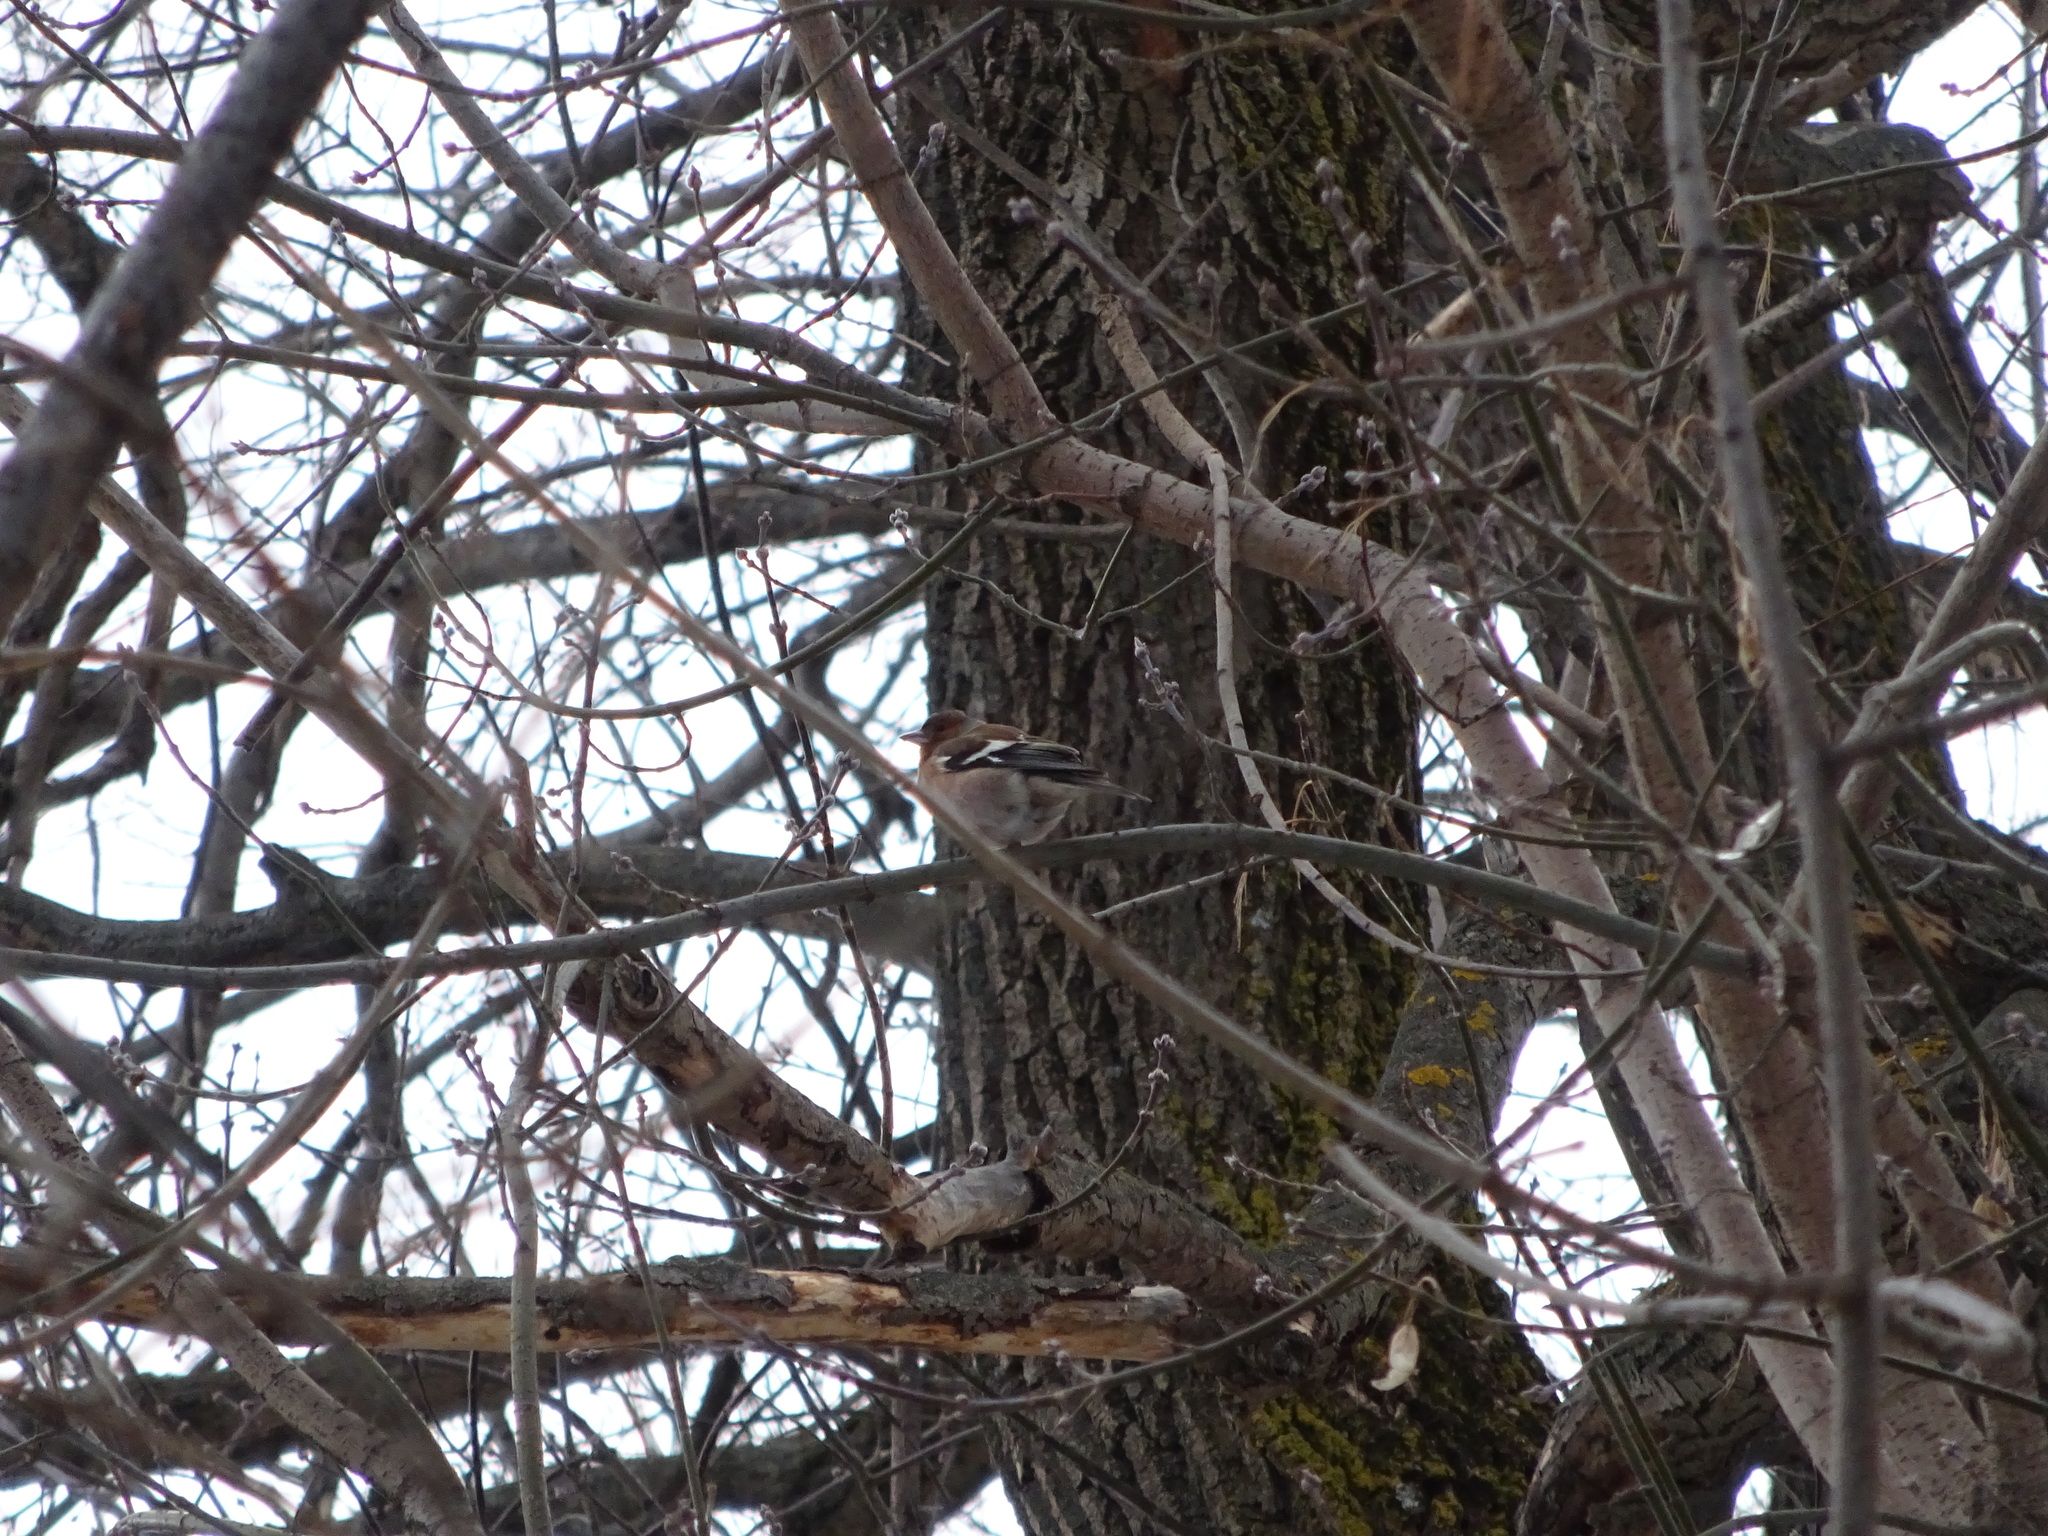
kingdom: Animalia
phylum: Chordata
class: Aves
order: Passeriformes
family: Fringillidae
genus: Fringilla
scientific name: Fringilla coelebs
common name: Common chaffinch
